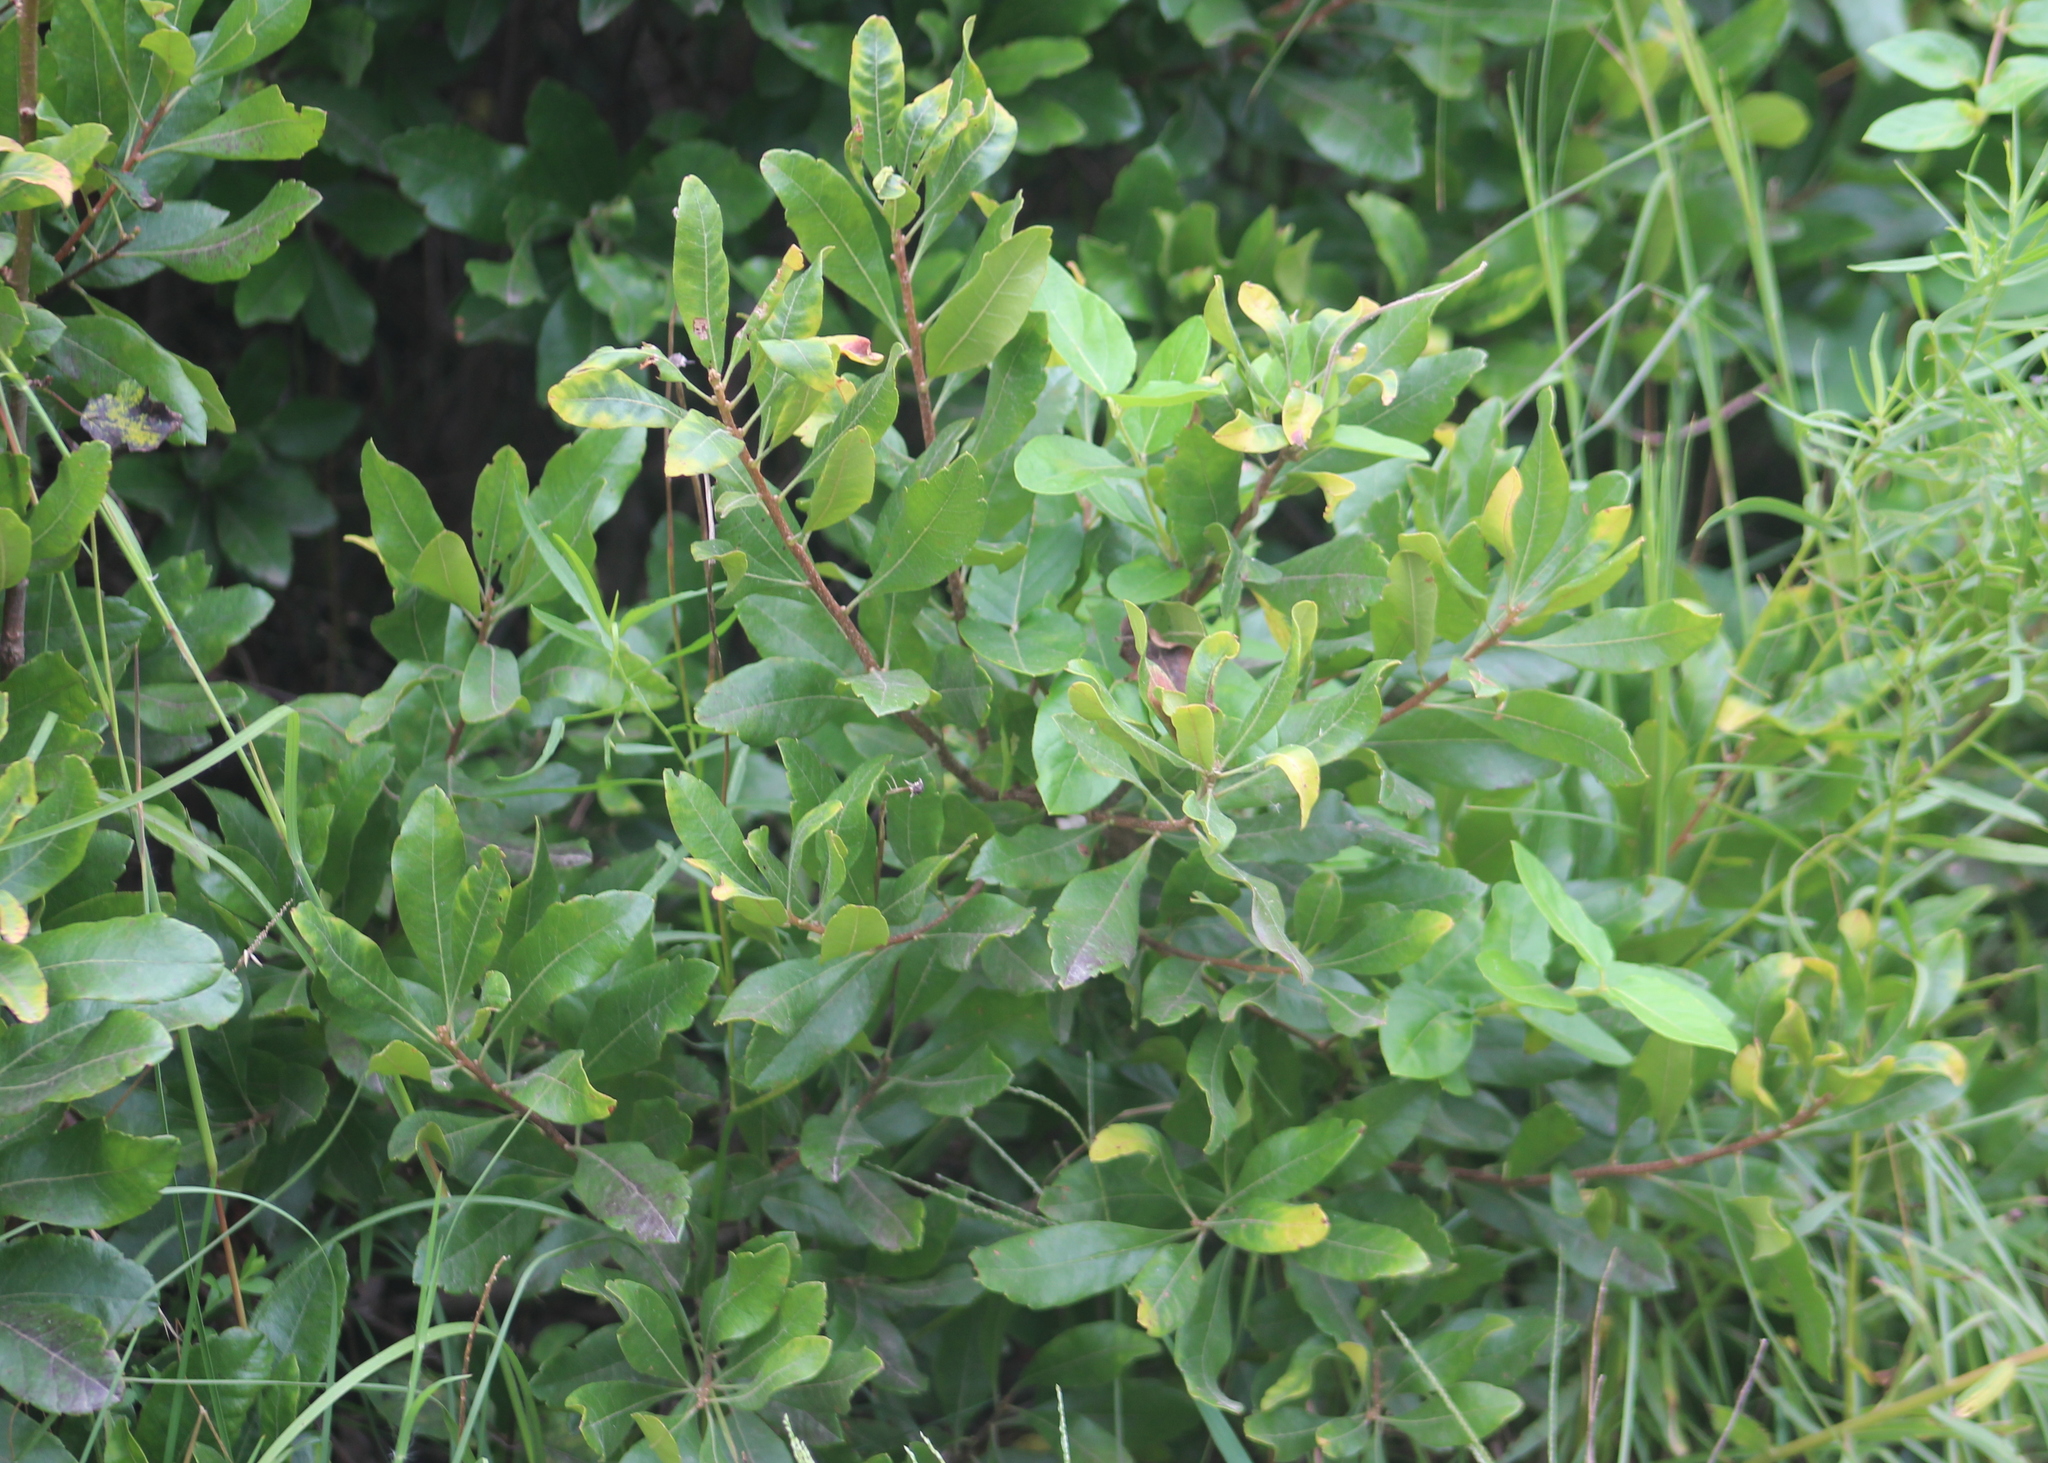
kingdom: Plantae
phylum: Tracheophyta
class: Magnoliopsida
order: Fagales
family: Myricaceae
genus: Morella
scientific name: Morella pensylvanica
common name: Northern bayberry
